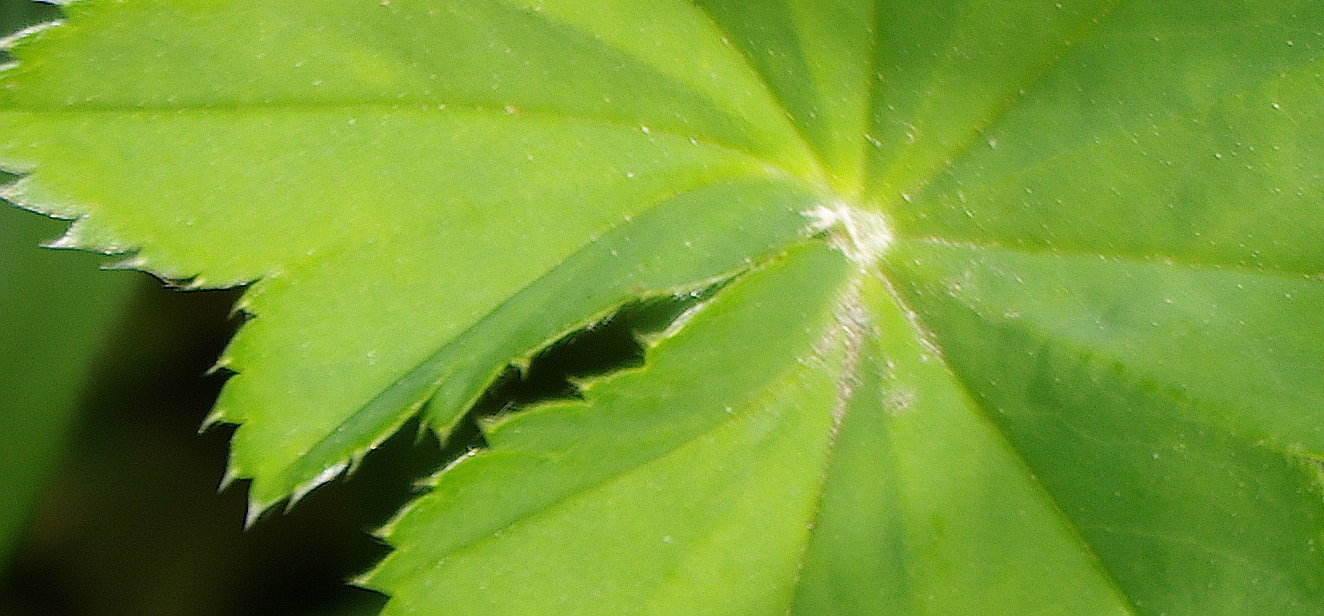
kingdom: Plantae
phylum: Tracheophyta
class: Magnoliopsida
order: Rosales
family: Rosaceae
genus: Alchemilla
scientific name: Alchemilla baltica
